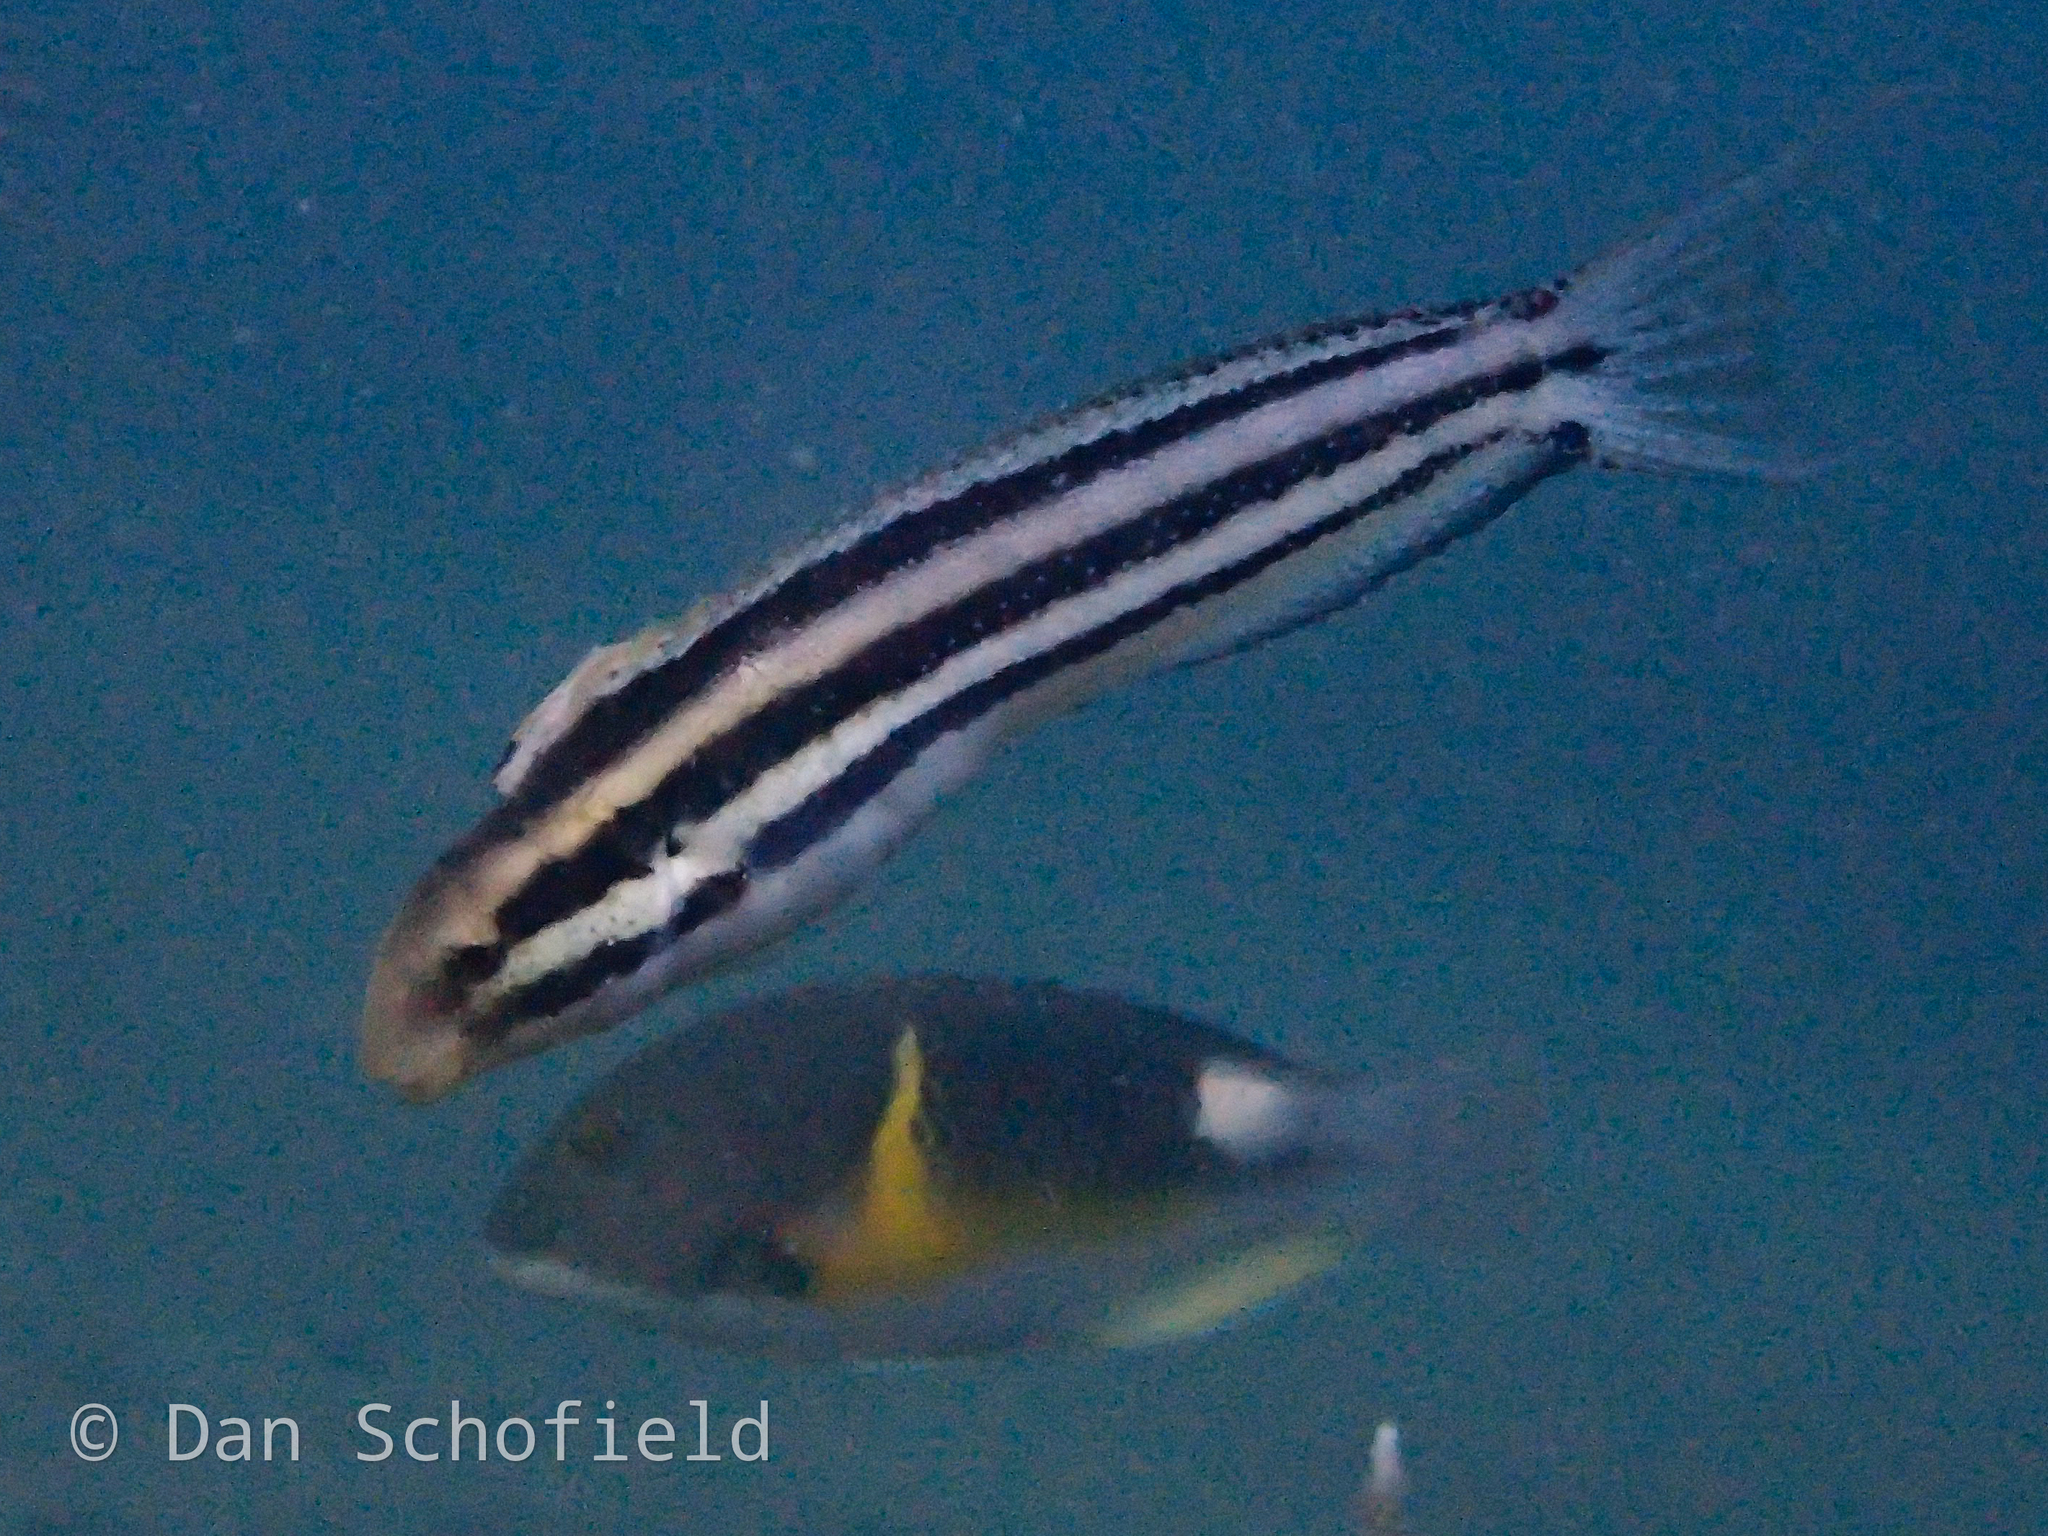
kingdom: Animalia
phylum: Chordata
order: Perciformes
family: Labridae
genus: Choerodon
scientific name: Choerodon anchorago
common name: Anchor tuskfish
